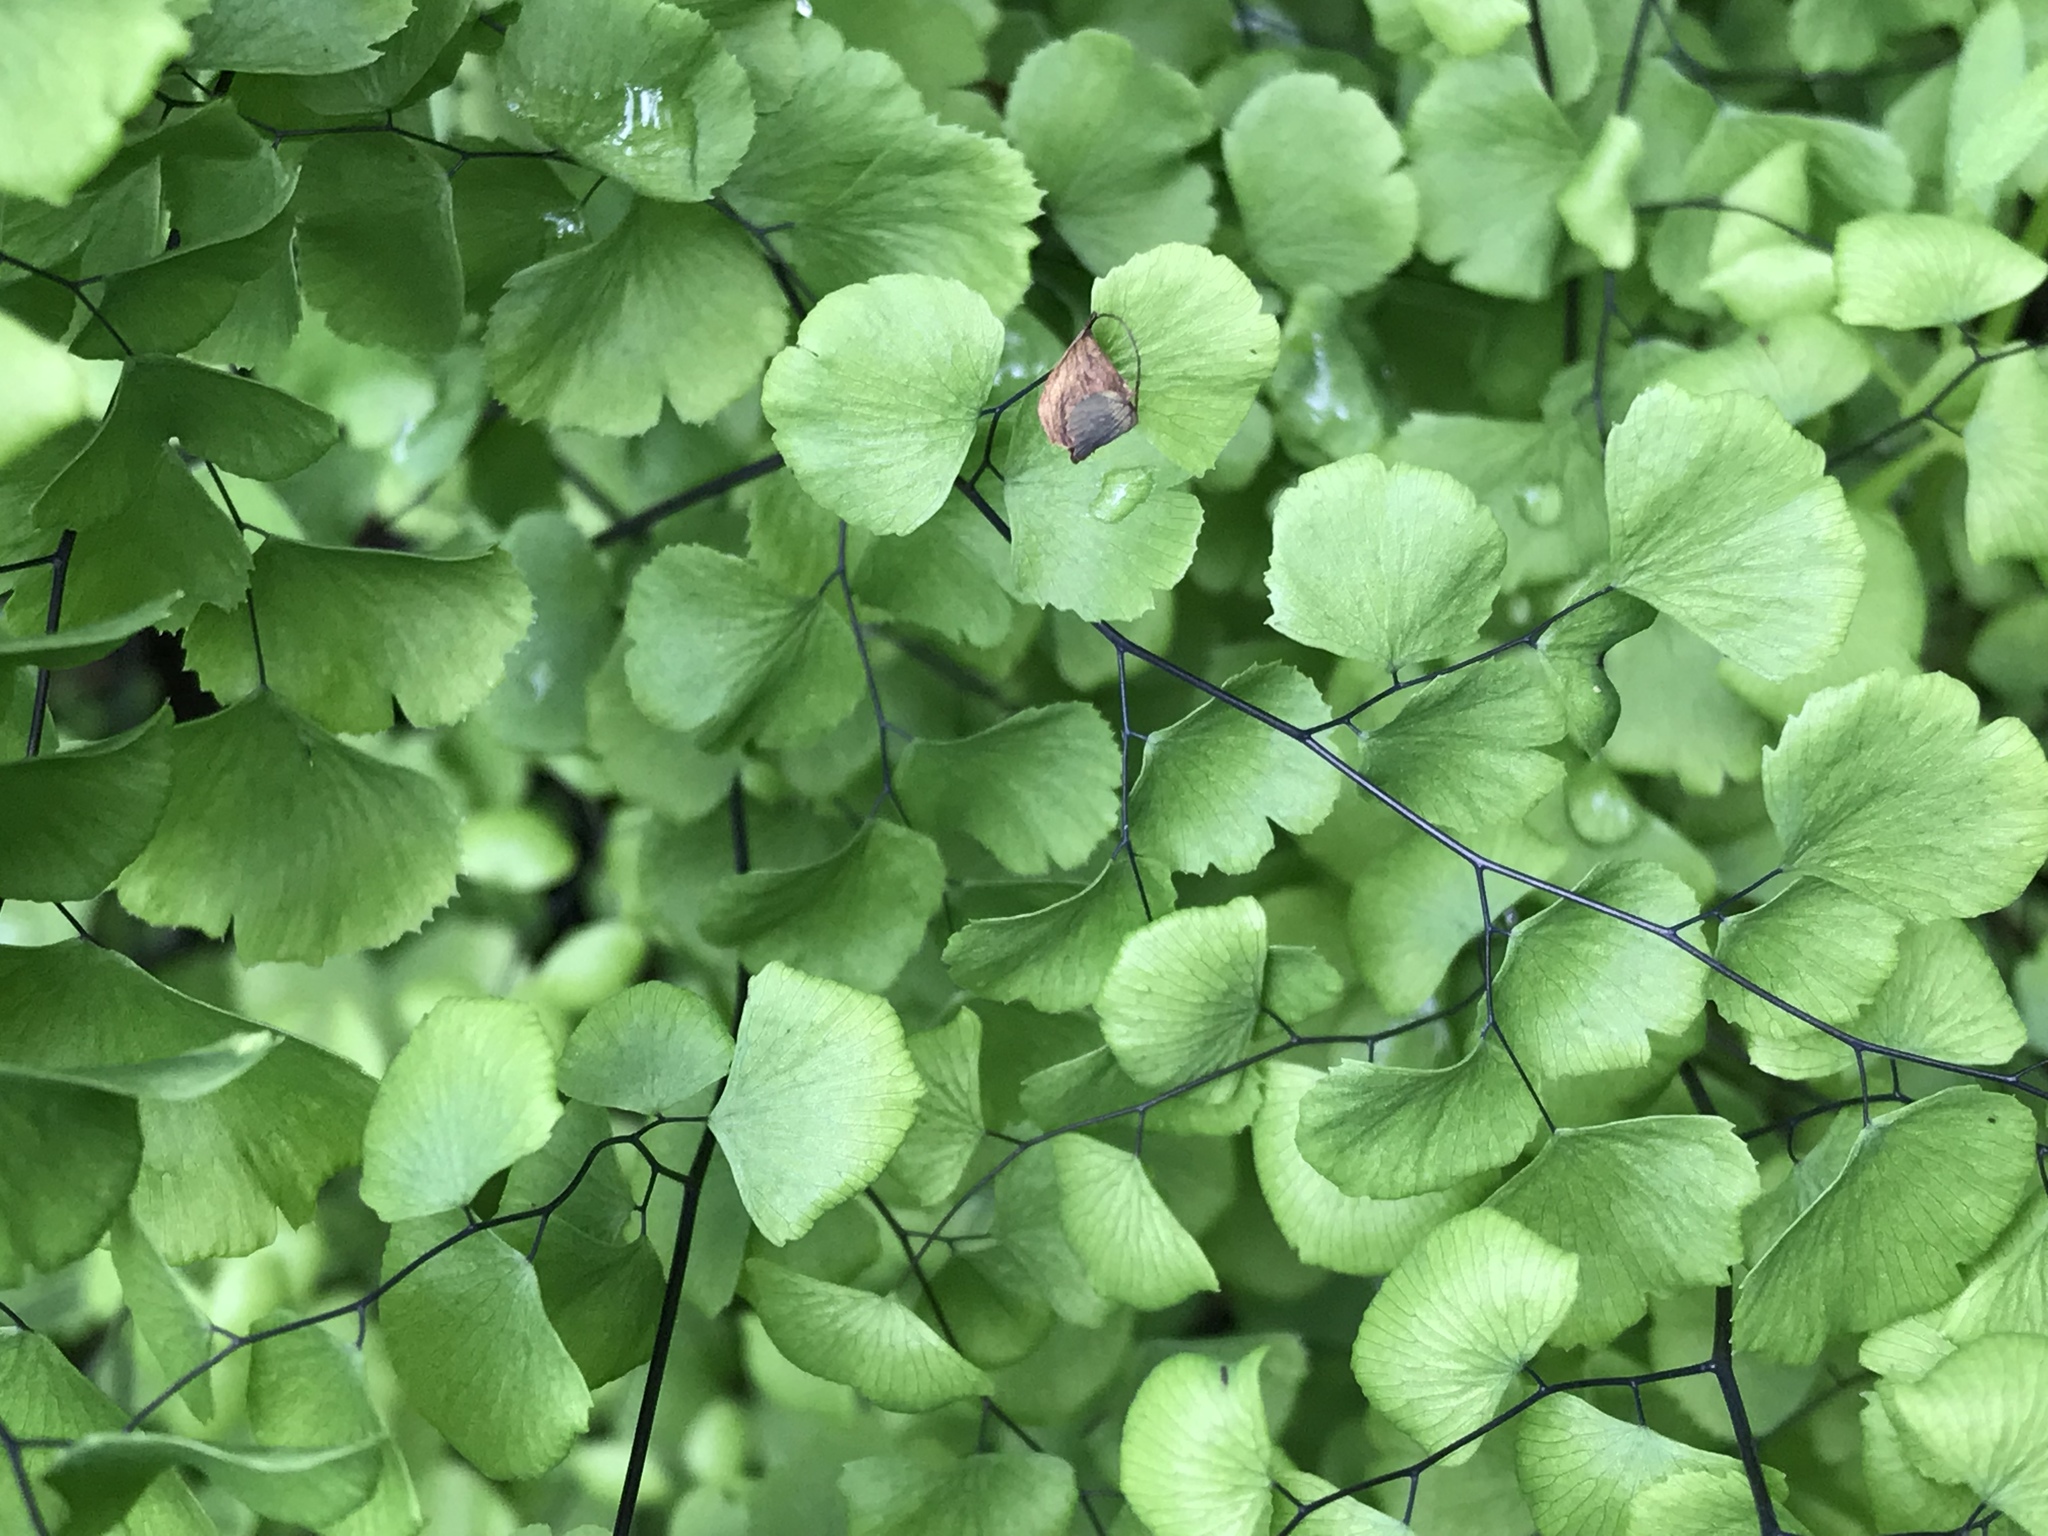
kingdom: Plantae
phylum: Tracheophyta
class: Polypodiopsida
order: Polypodiales
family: Pteridaceae
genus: Adiantum
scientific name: Adiantum jordanii
